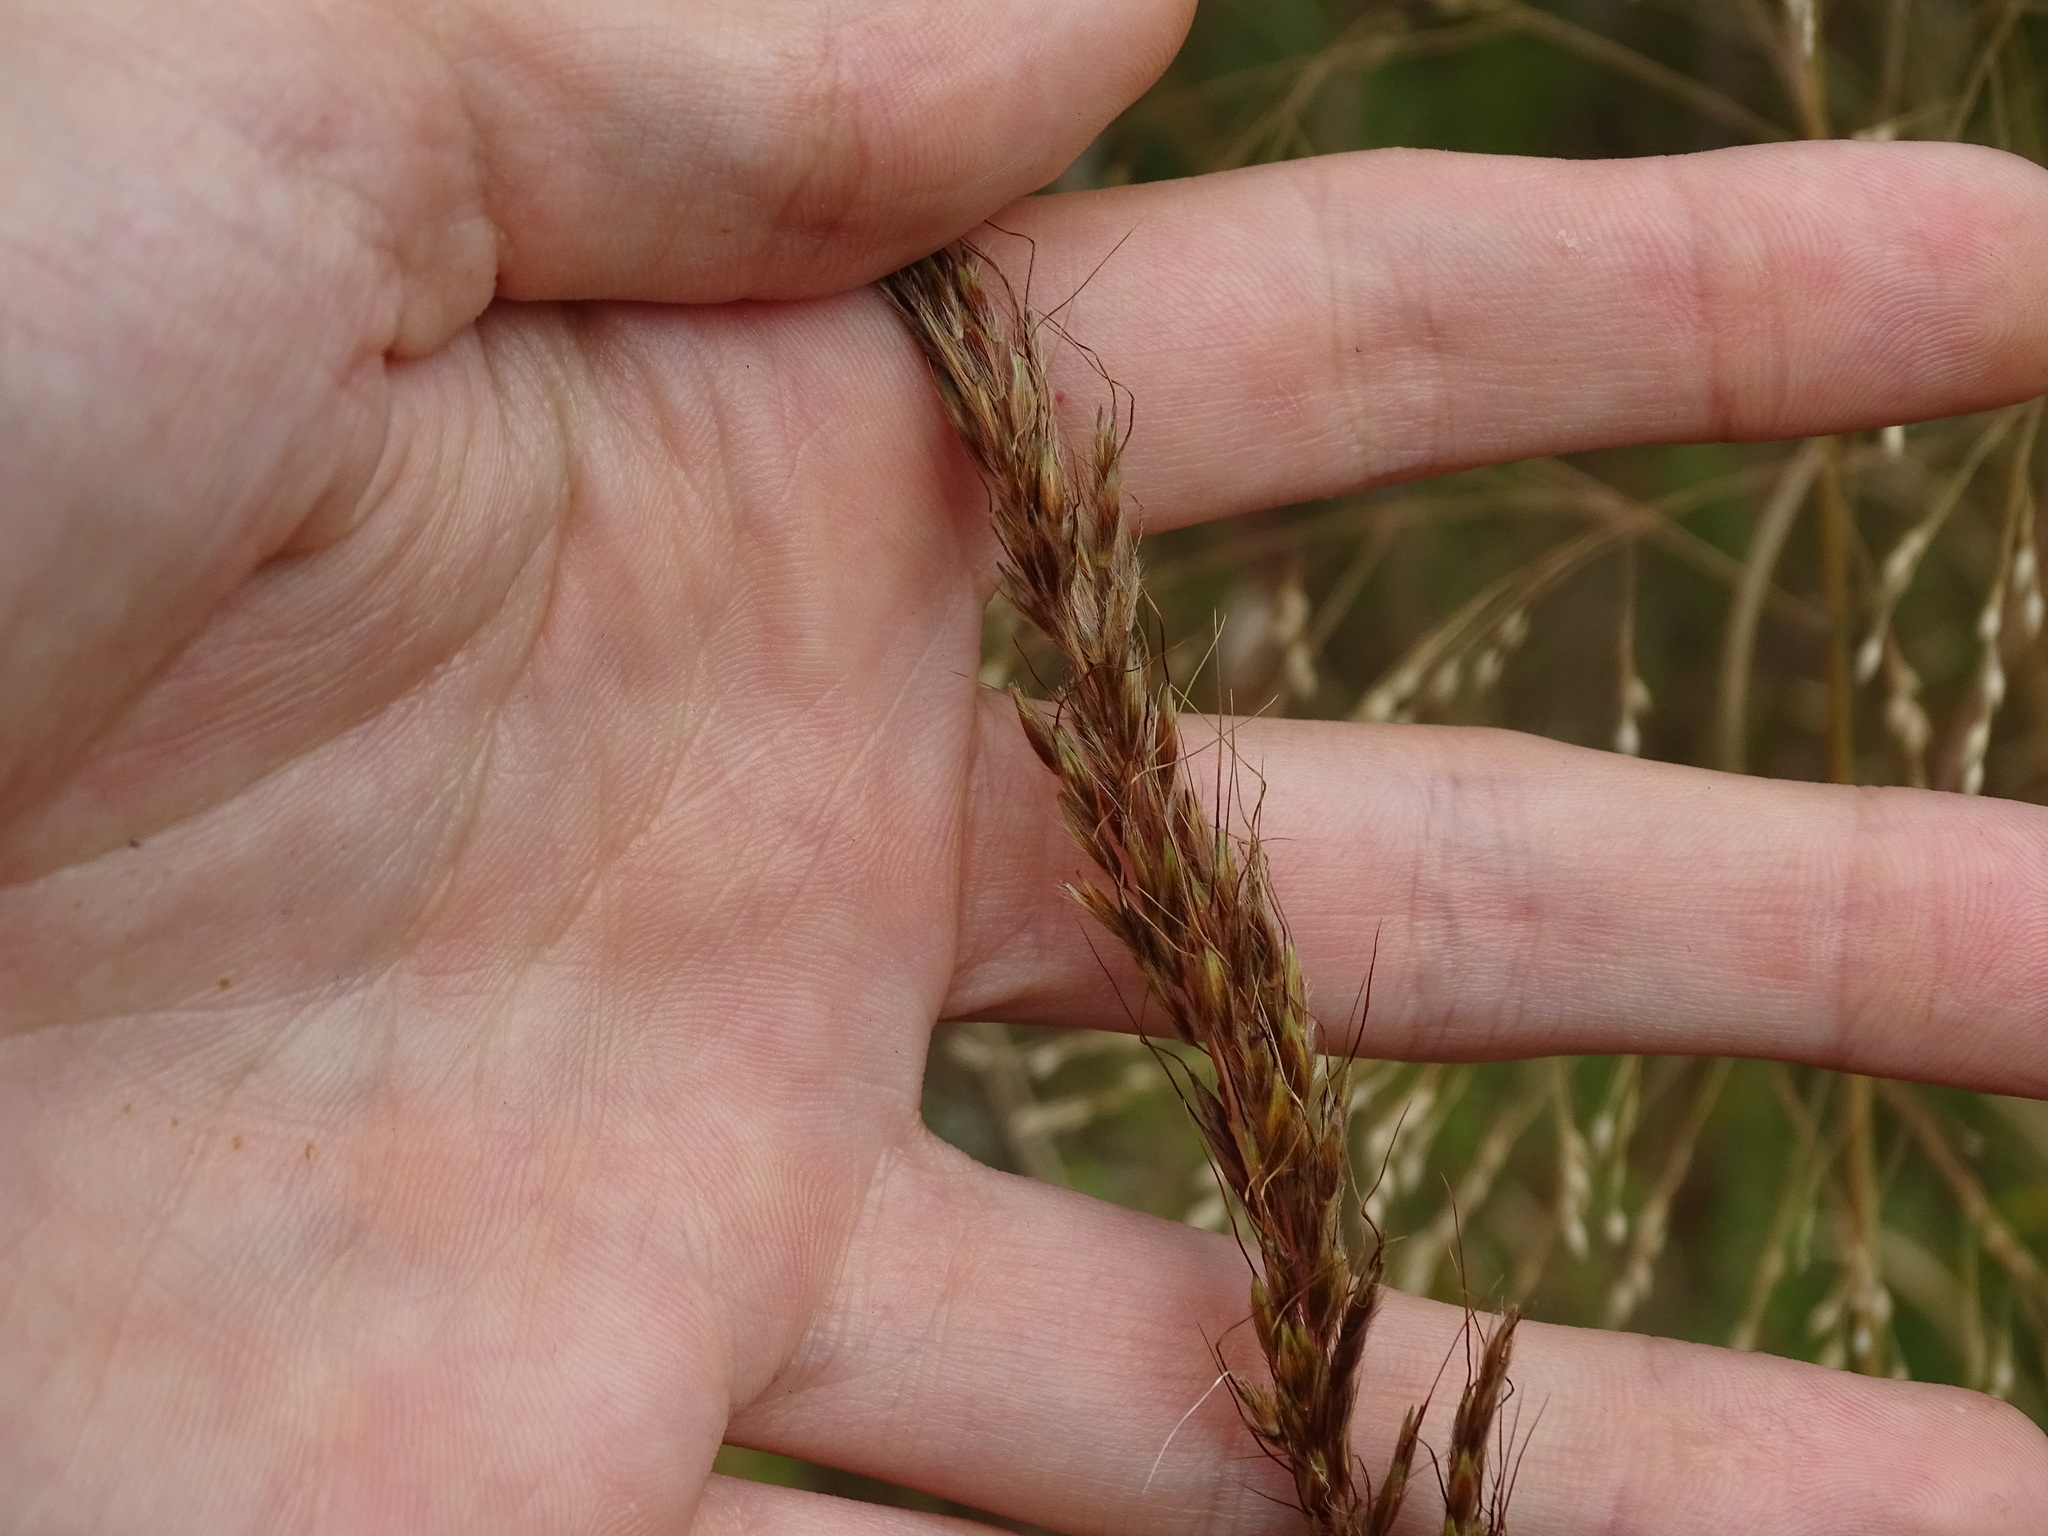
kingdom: Plantae
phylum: Tracheophyta
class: Liliopsida
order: Poales
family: Poaceae
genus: Sorghastrum
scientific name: Sorghastrum nutans
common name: Indian grass
